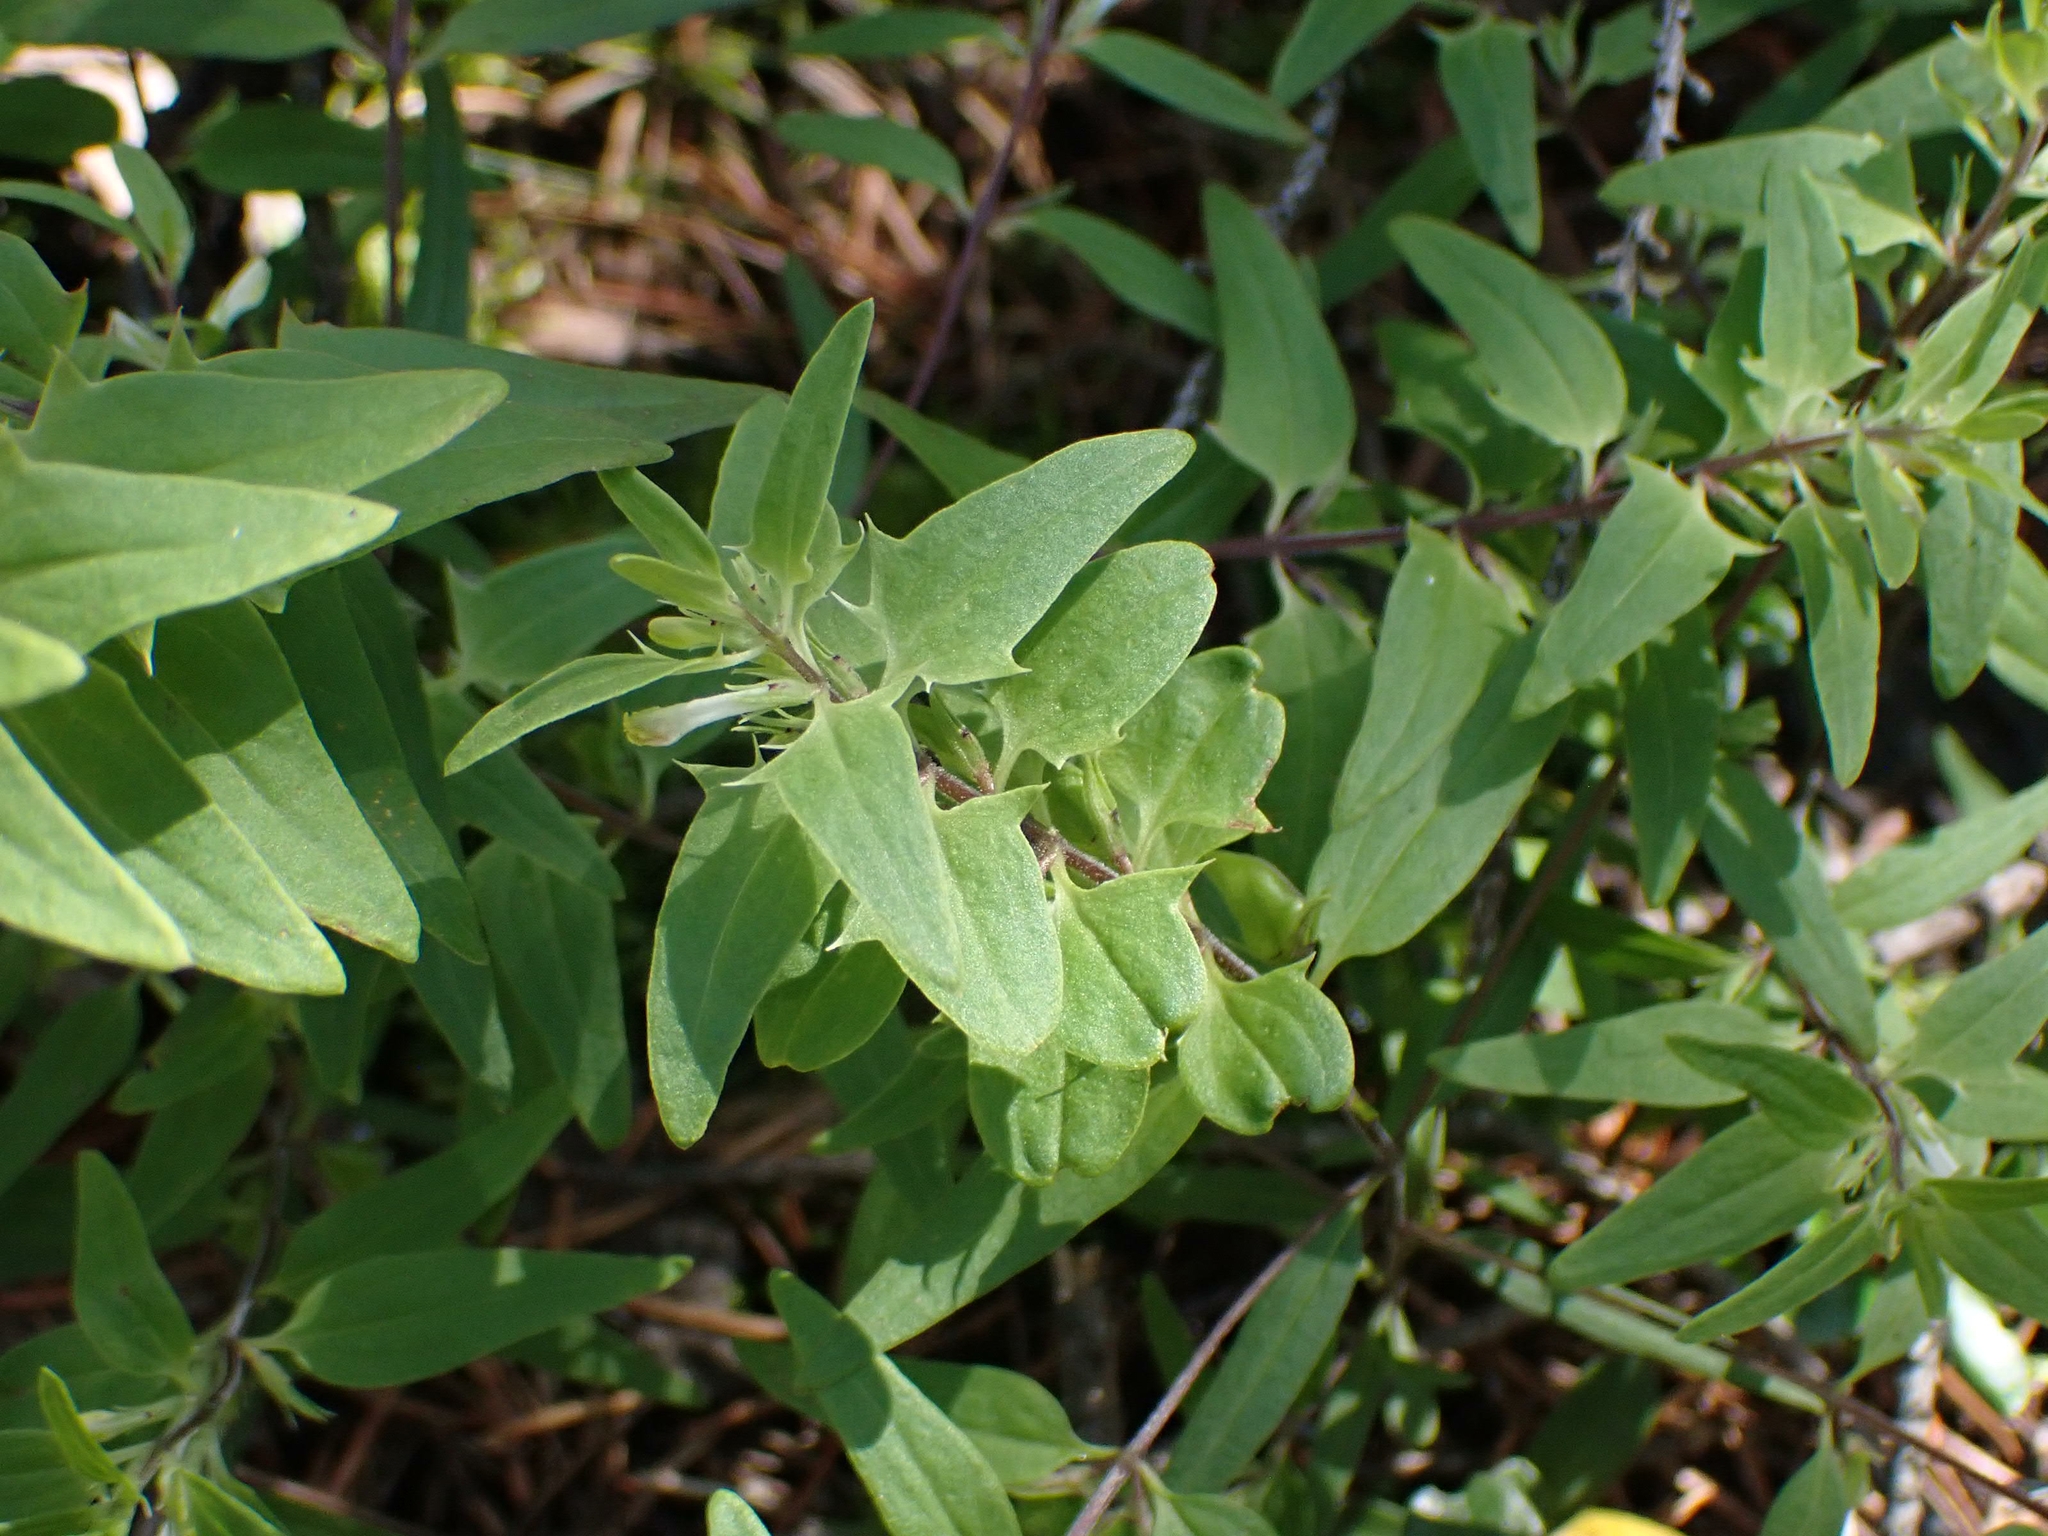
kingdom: Plantae
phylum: Tracheophyta
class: Magnoliopsida
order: Lamiales
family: Orobanchaceae
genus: Melampyrum
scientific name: Melampyrum lineare
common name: American cow-wheat
